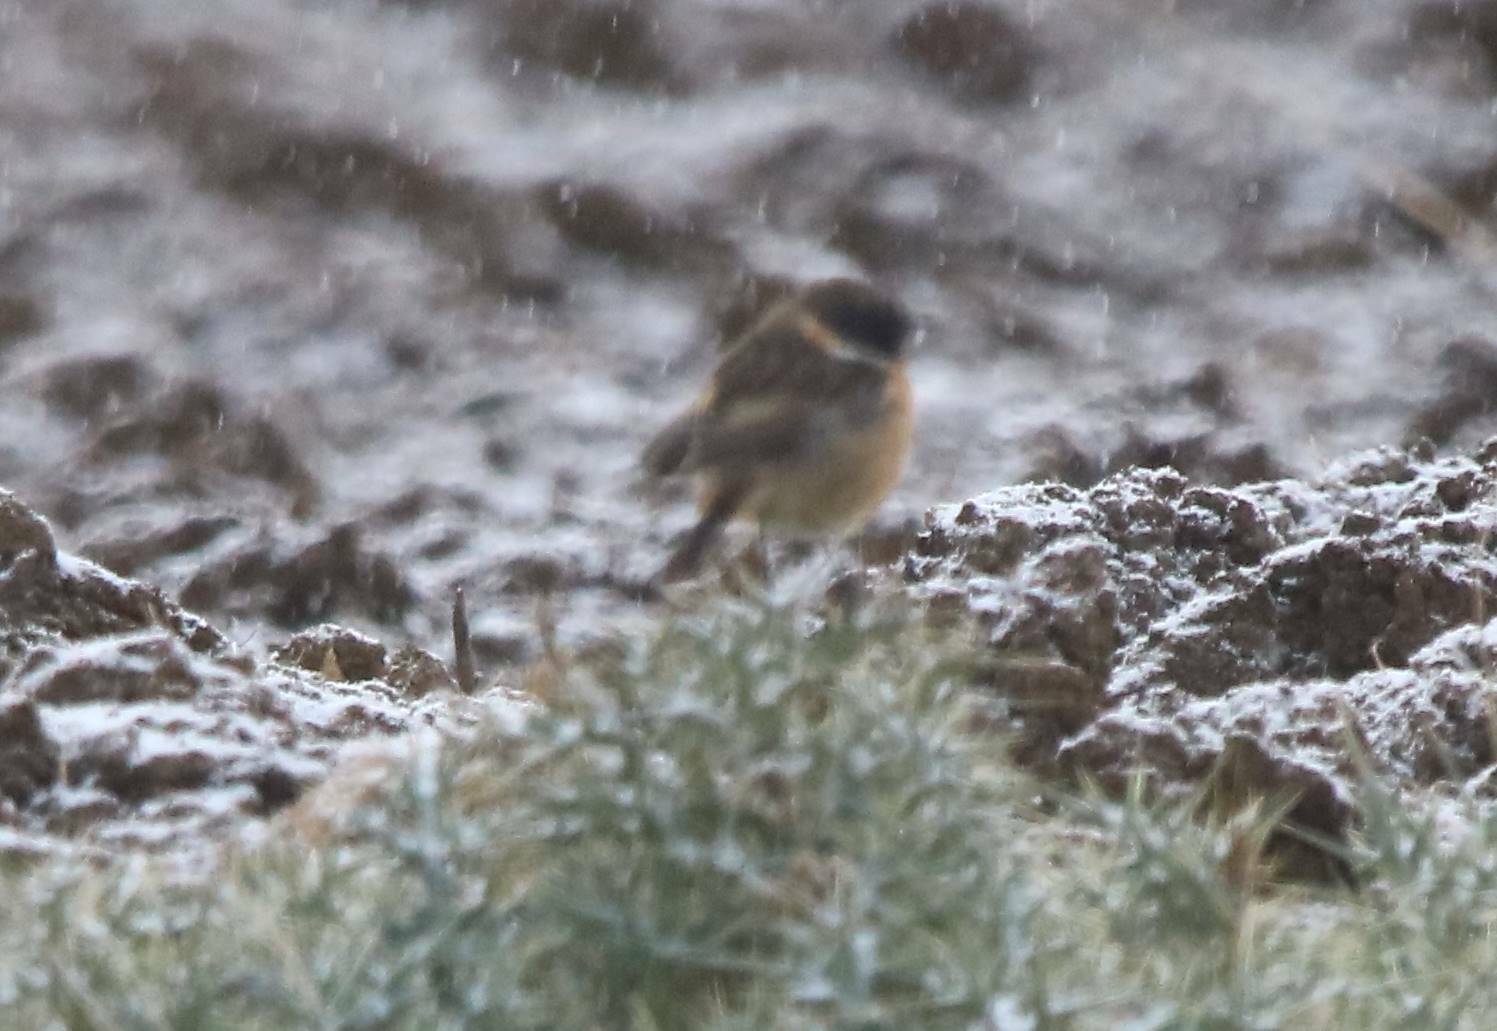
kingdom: Animalia
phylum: Chordata
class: Aves
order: Passeriformes
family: Muscicapidae
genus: Saxicola
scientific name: Saxicola rubicola
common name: European stonechat
